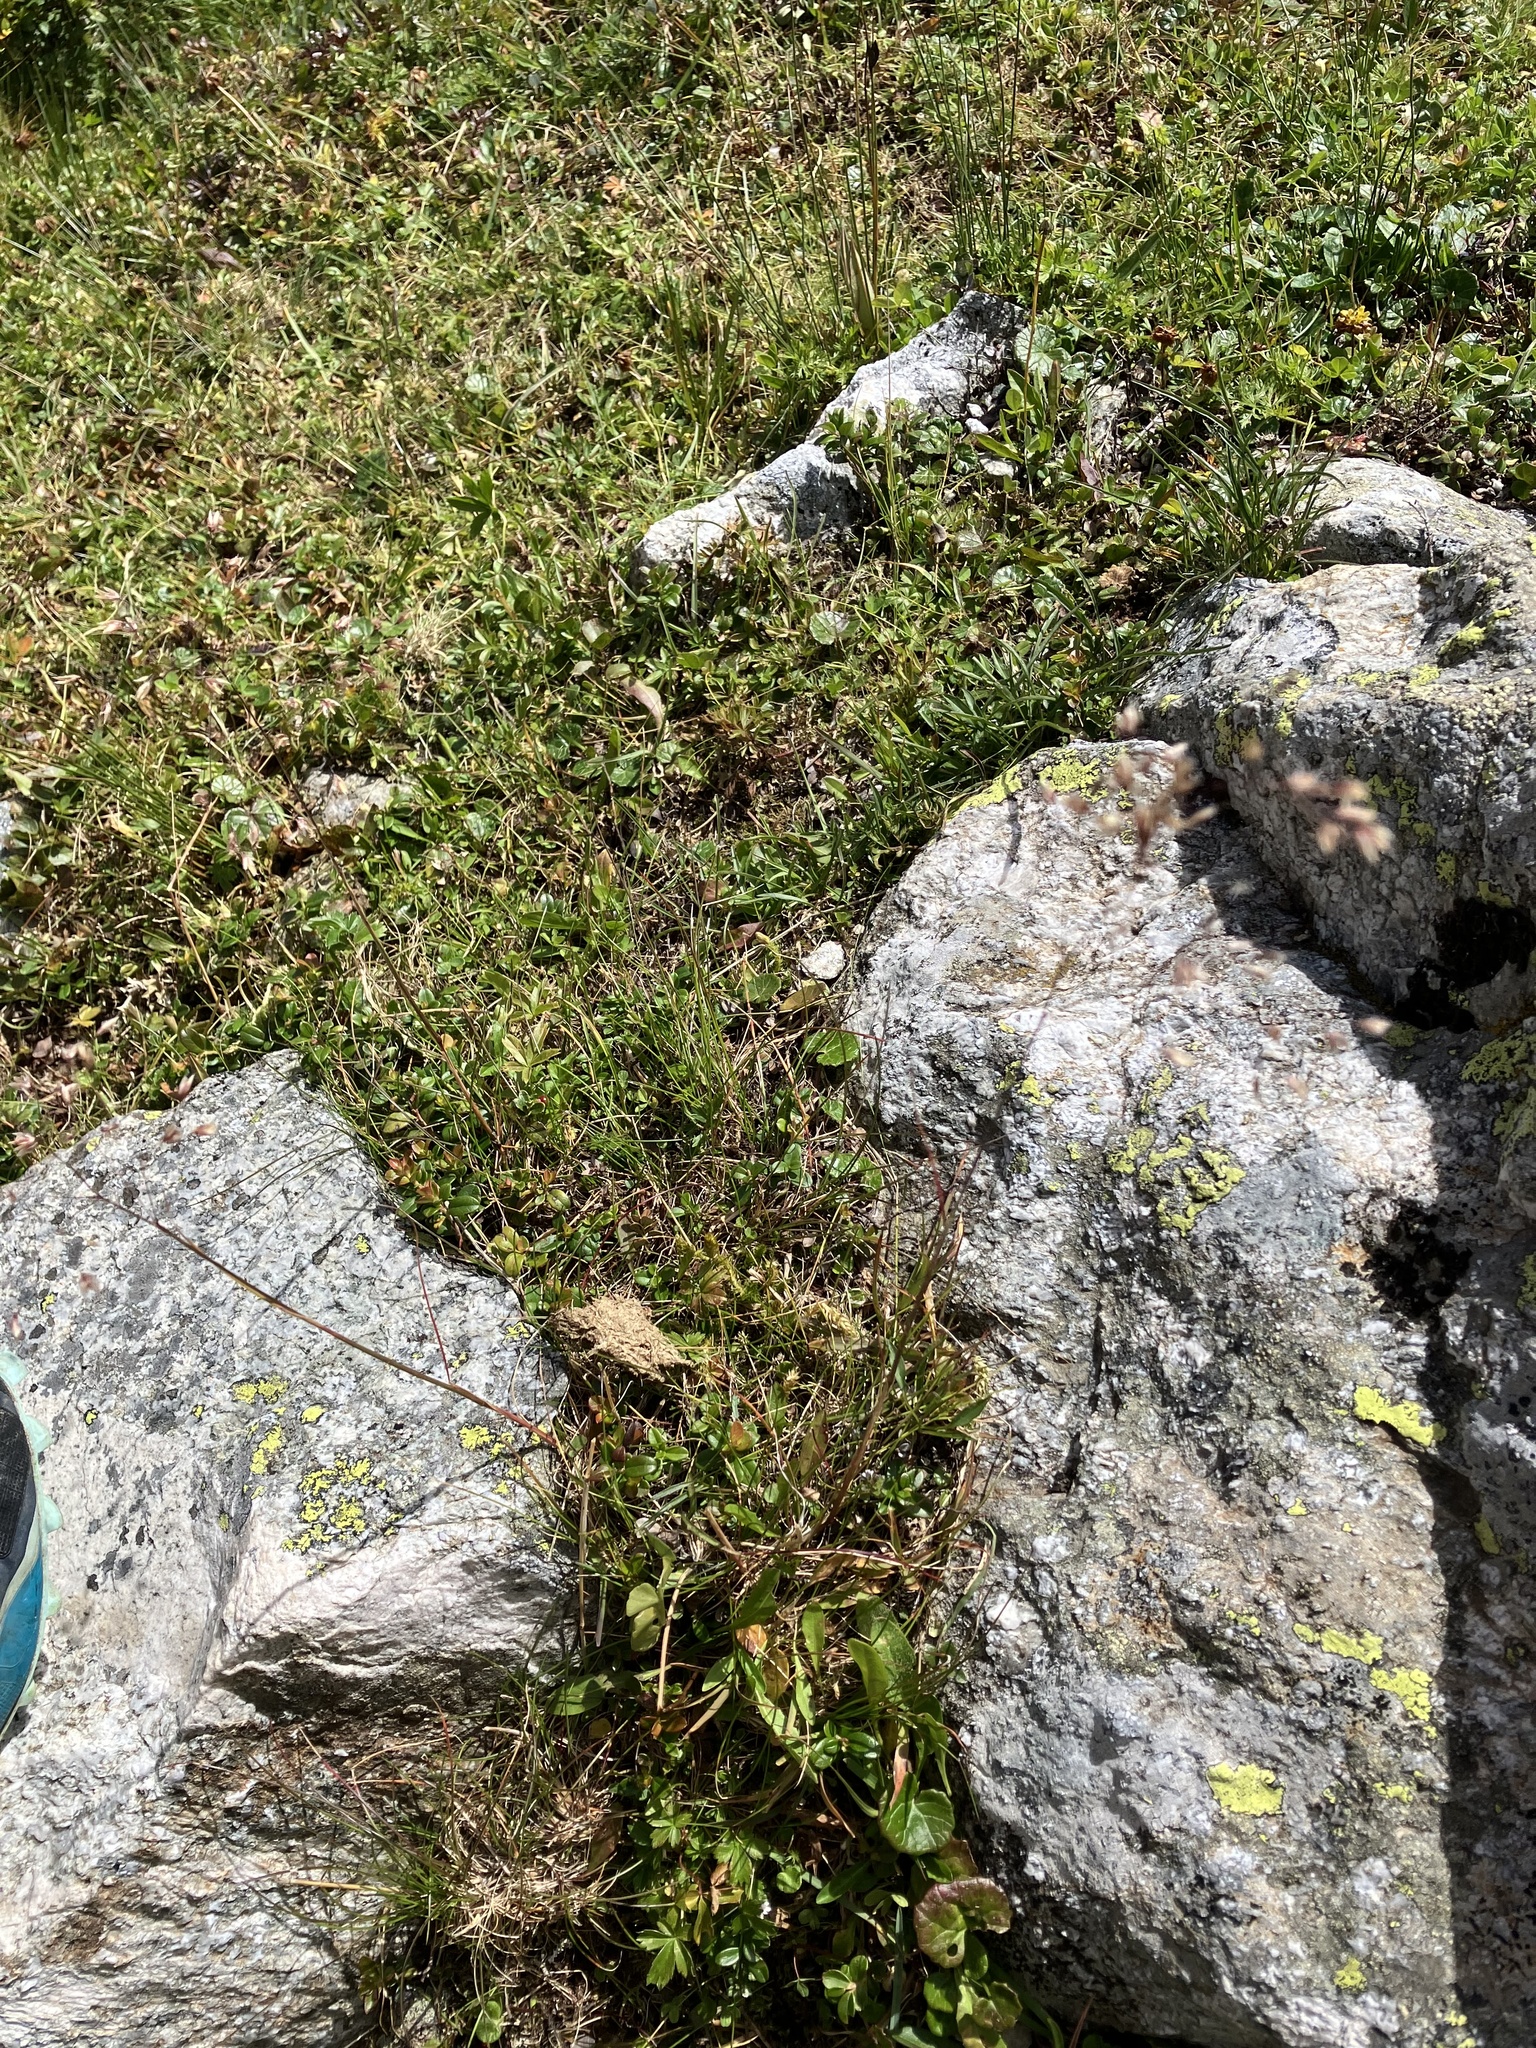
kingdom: Plantae
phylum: Tracheophyta
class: Liliopsida
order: Poales
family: Poaceae
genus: Avenella
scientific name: Avenella flexuosa
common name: Wavy hairgrass
